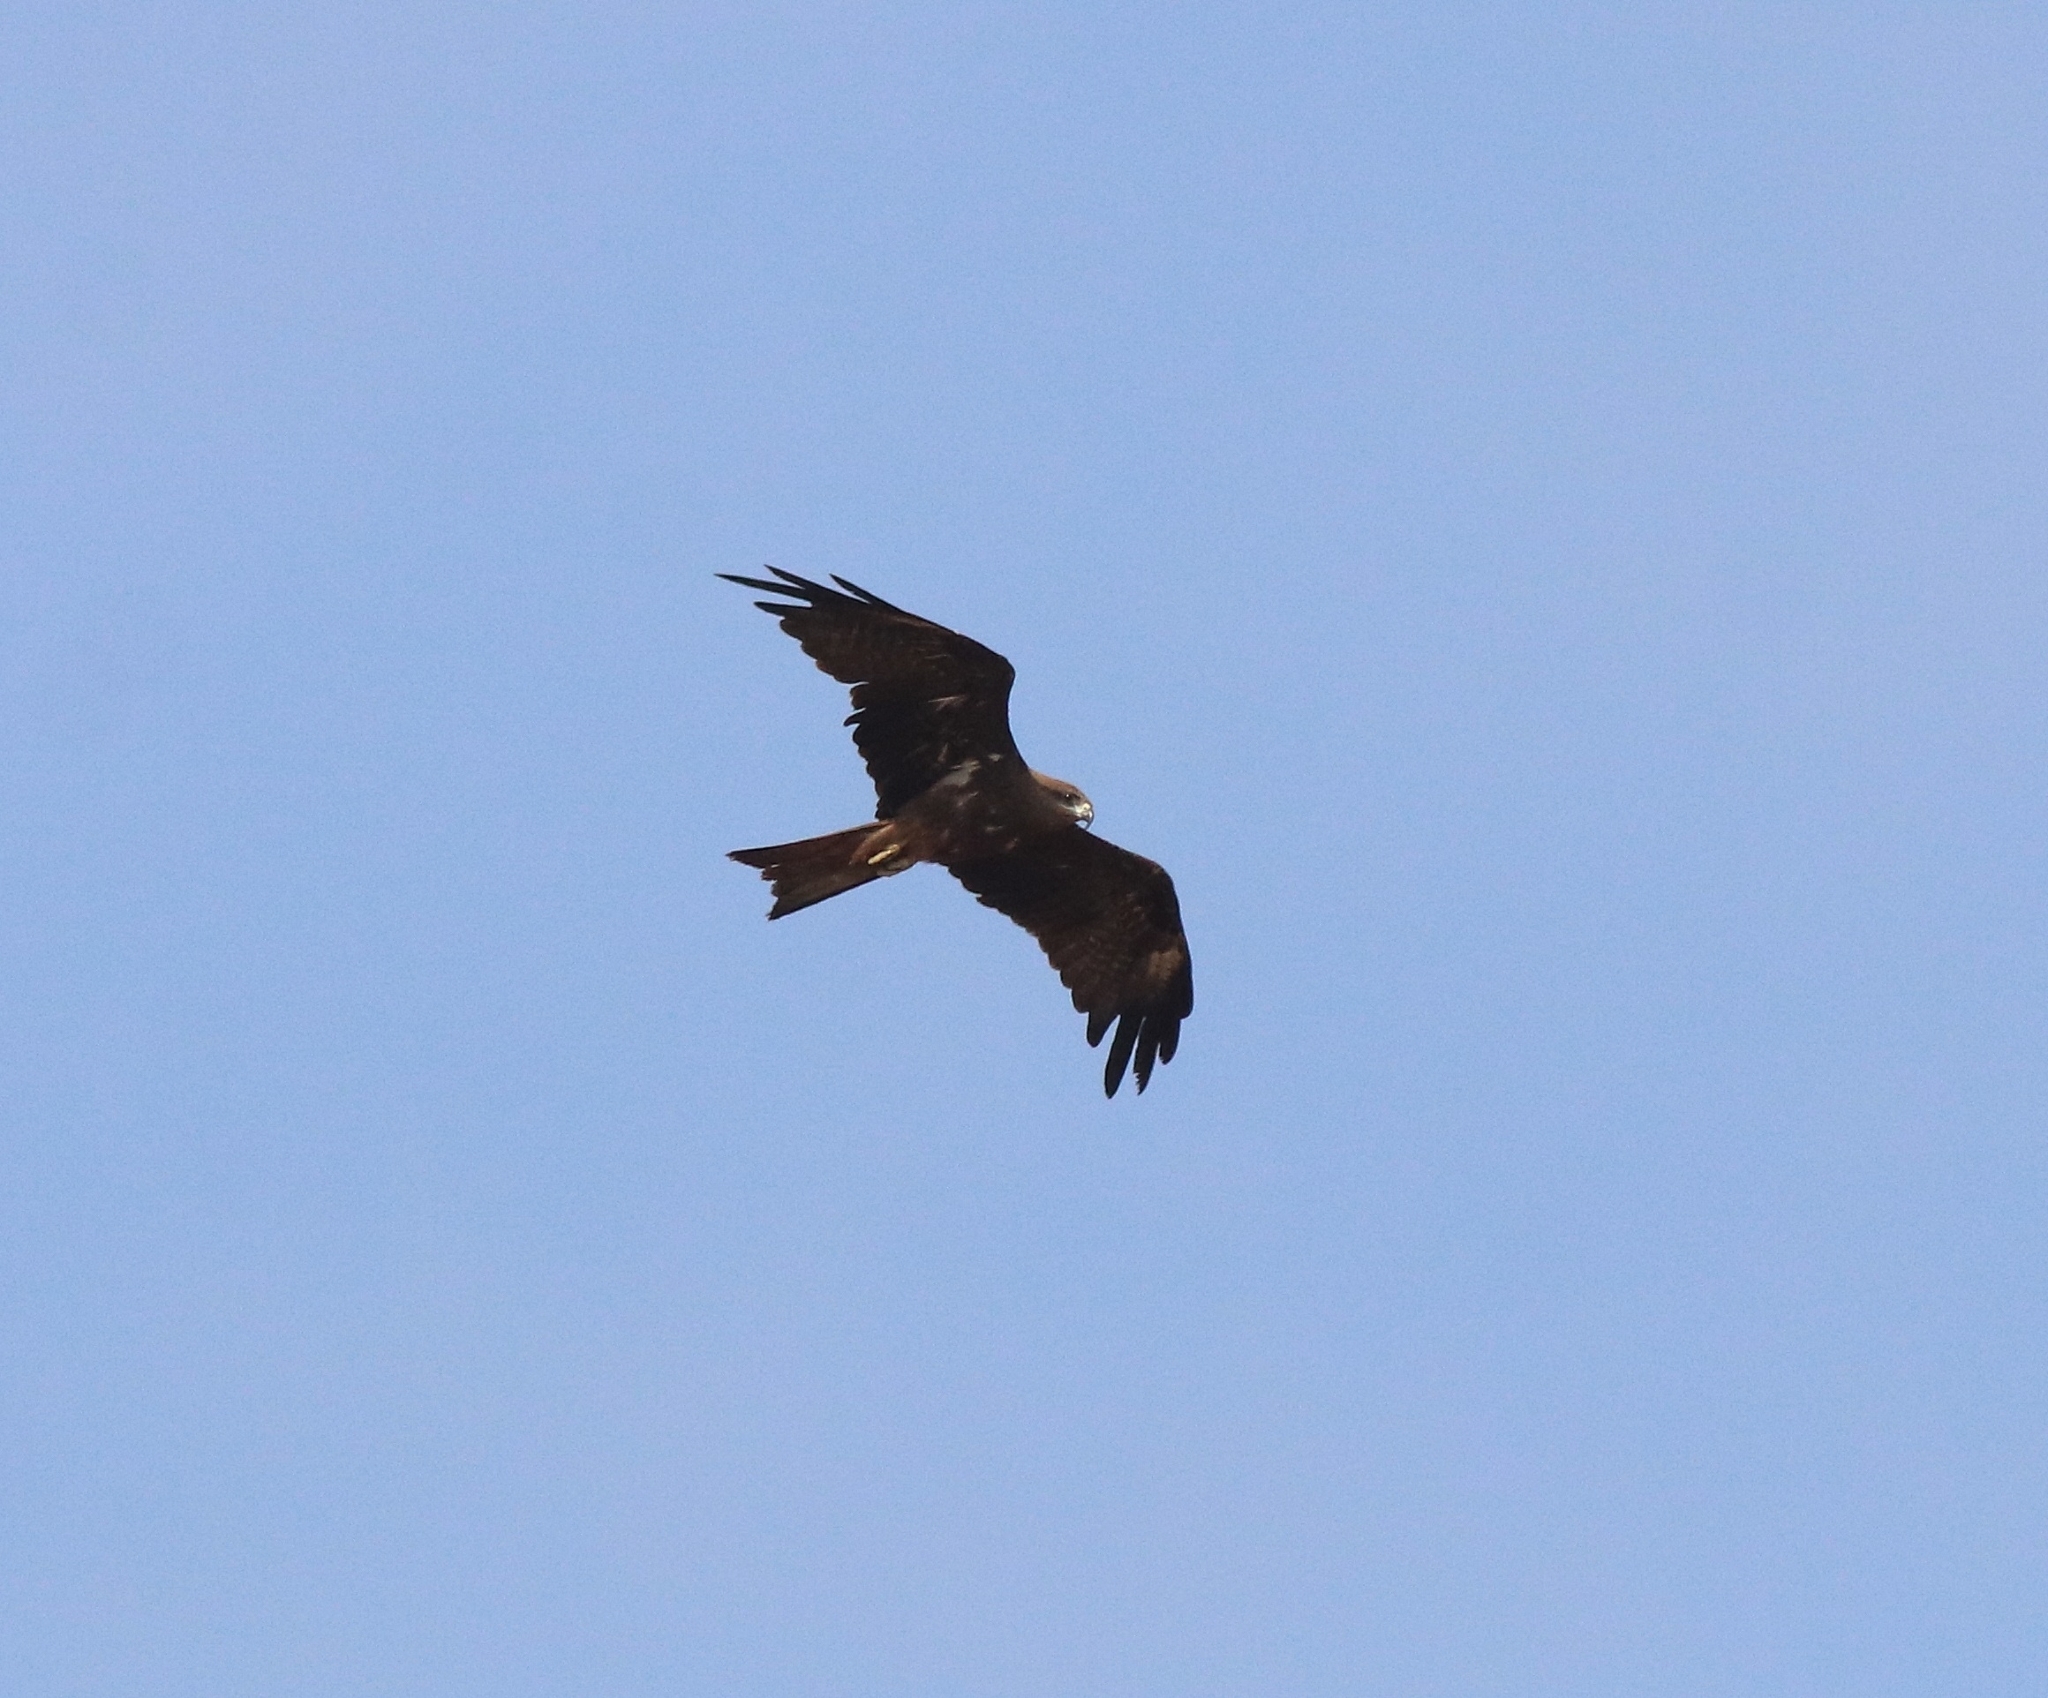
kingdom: Animalia
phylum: Chordata
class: Aves
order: Accipitriformes
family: Accipitridae
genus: Milvus
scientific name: Milvus migrans
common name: Black kite
